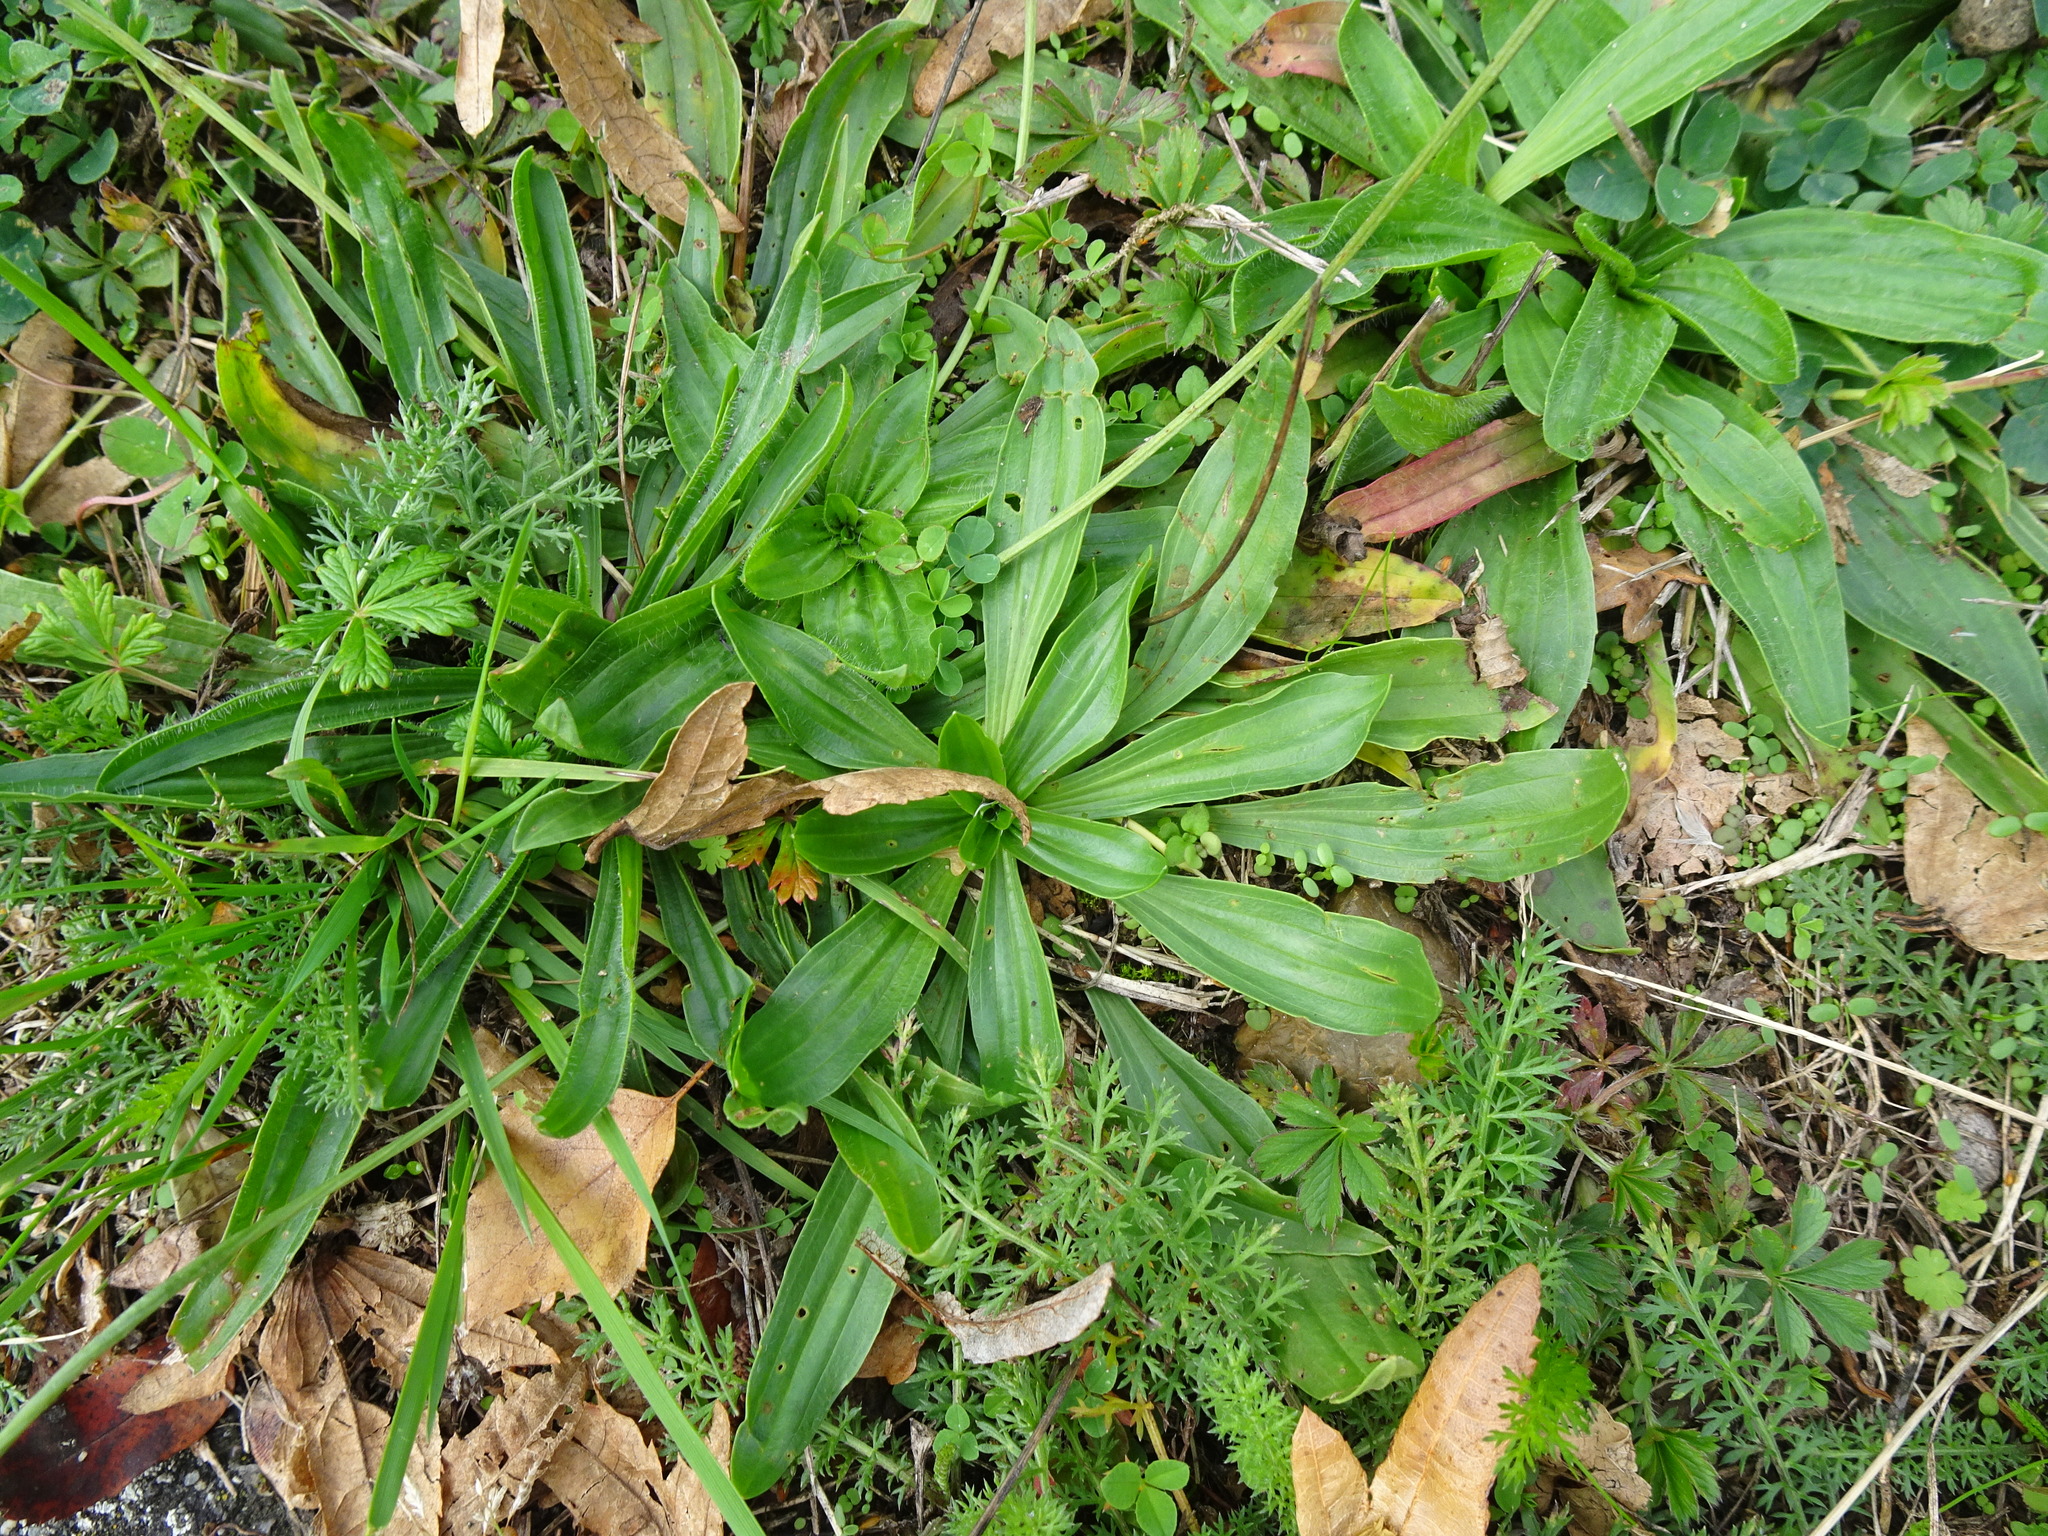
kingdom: Plantae
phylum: Tracheophyta
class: Magnoliopsida
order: Lamiales
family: Plantaginaceae
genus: Plantago
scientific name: Plantago lanceolata
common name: Ribwort plantain
